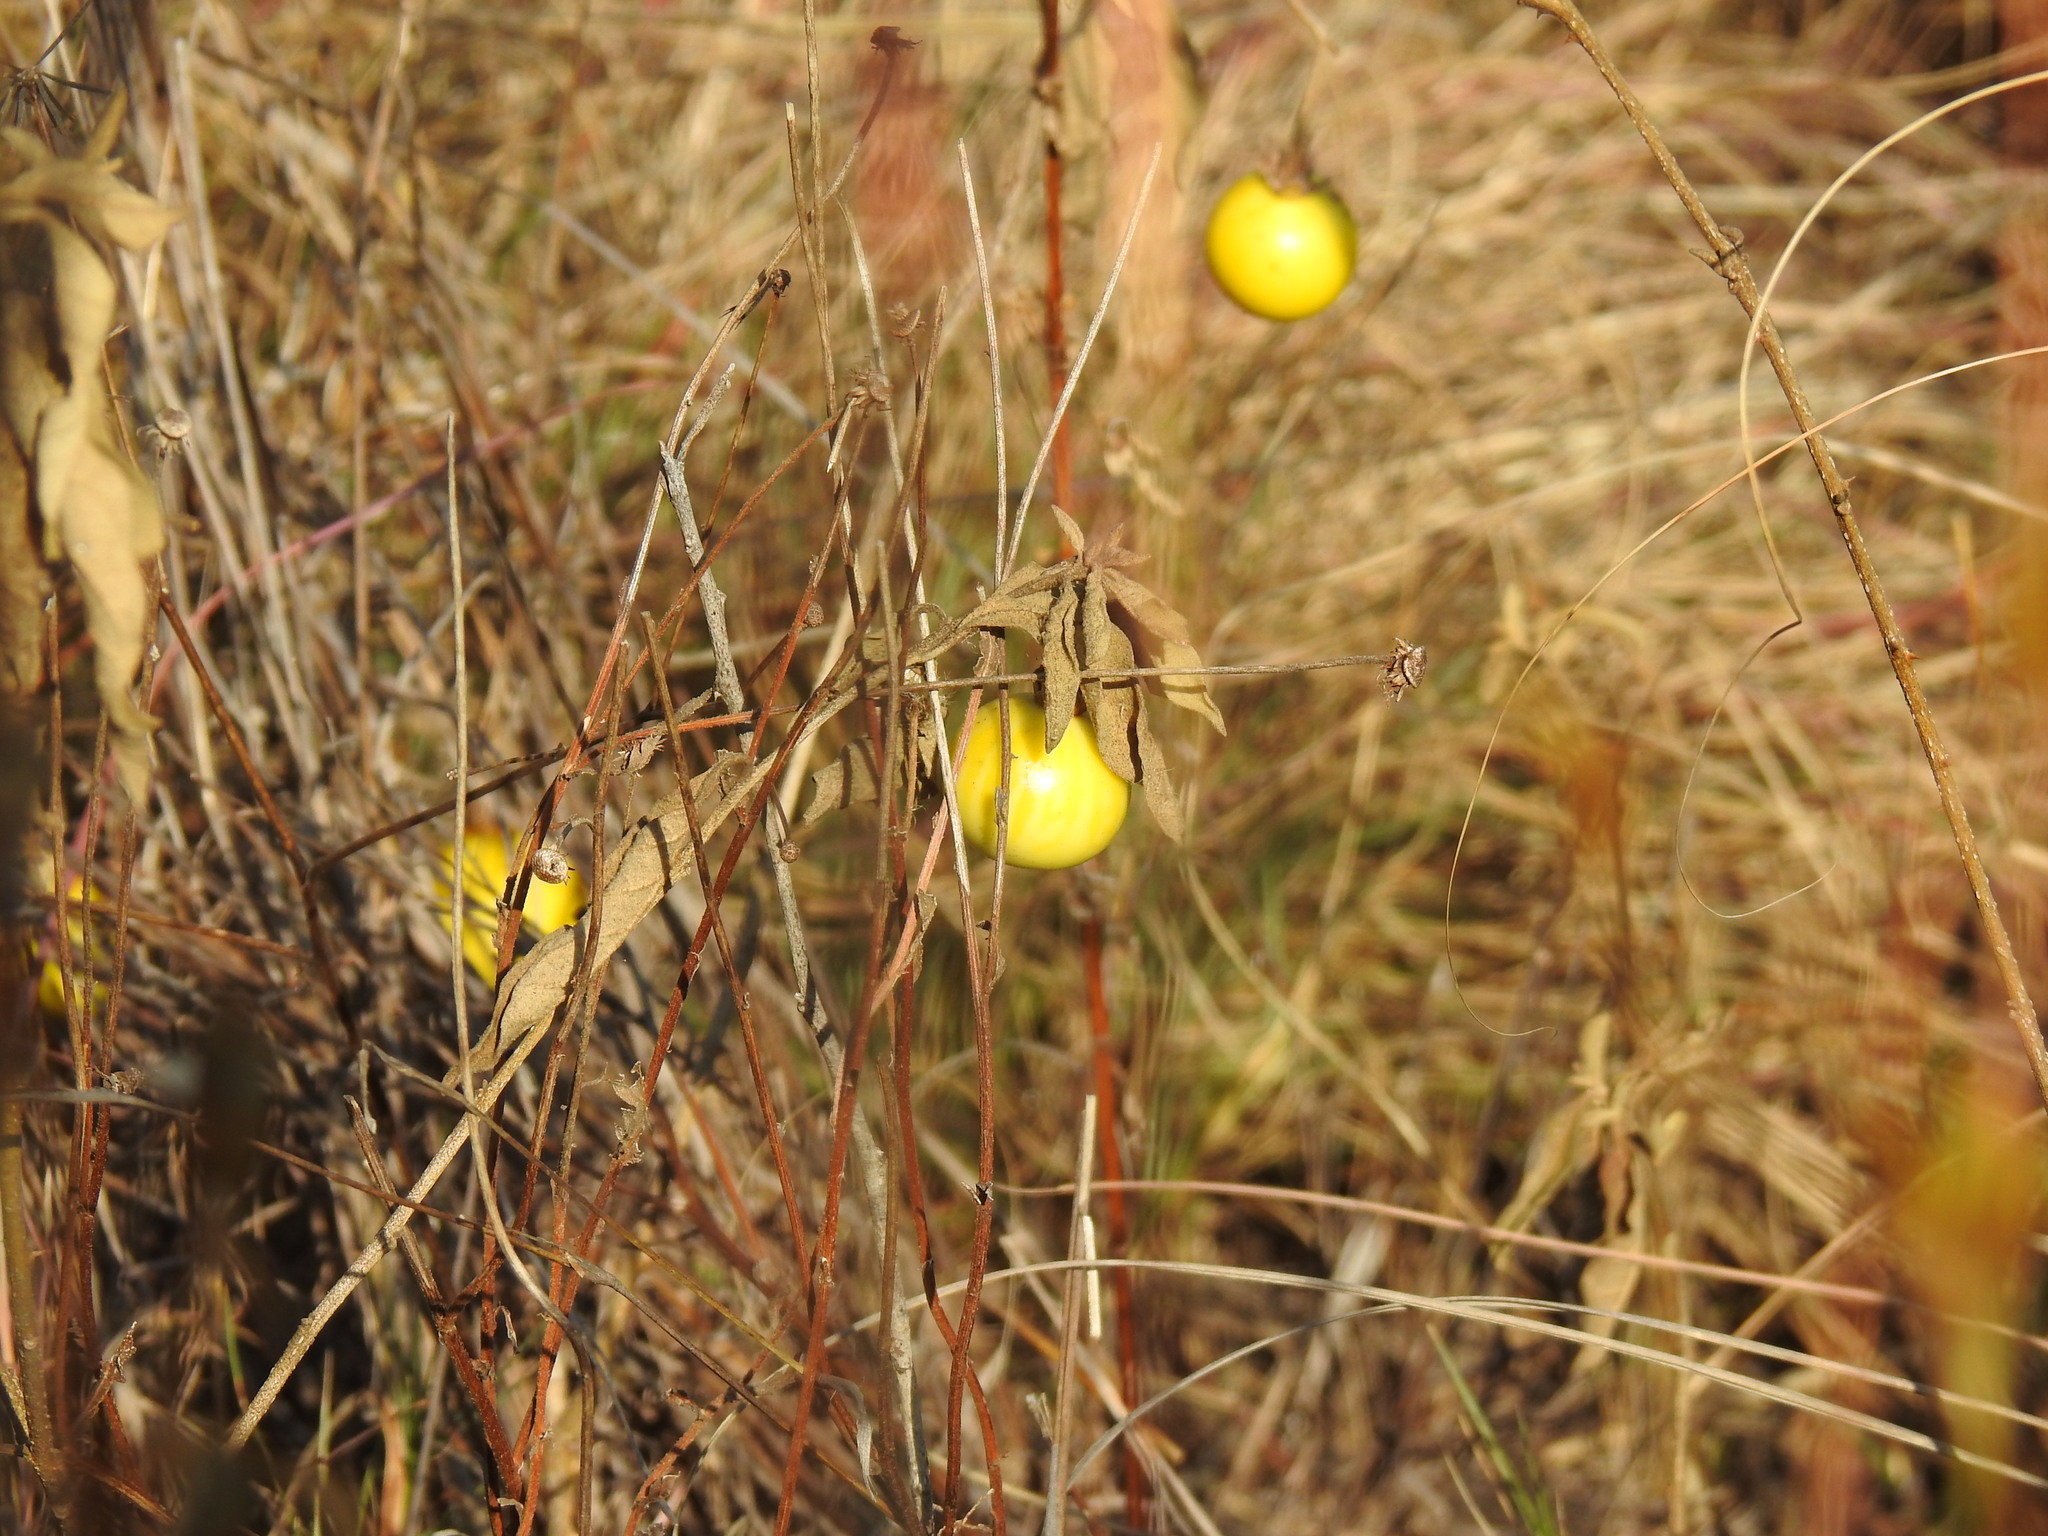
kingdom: Plantae
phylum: Tracheophyta
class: Magnoliopsida
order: Solanales
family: Solanaceae
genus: Solanum
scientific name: Solanum elaeagnifolium
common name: Silverleaf nightshade
